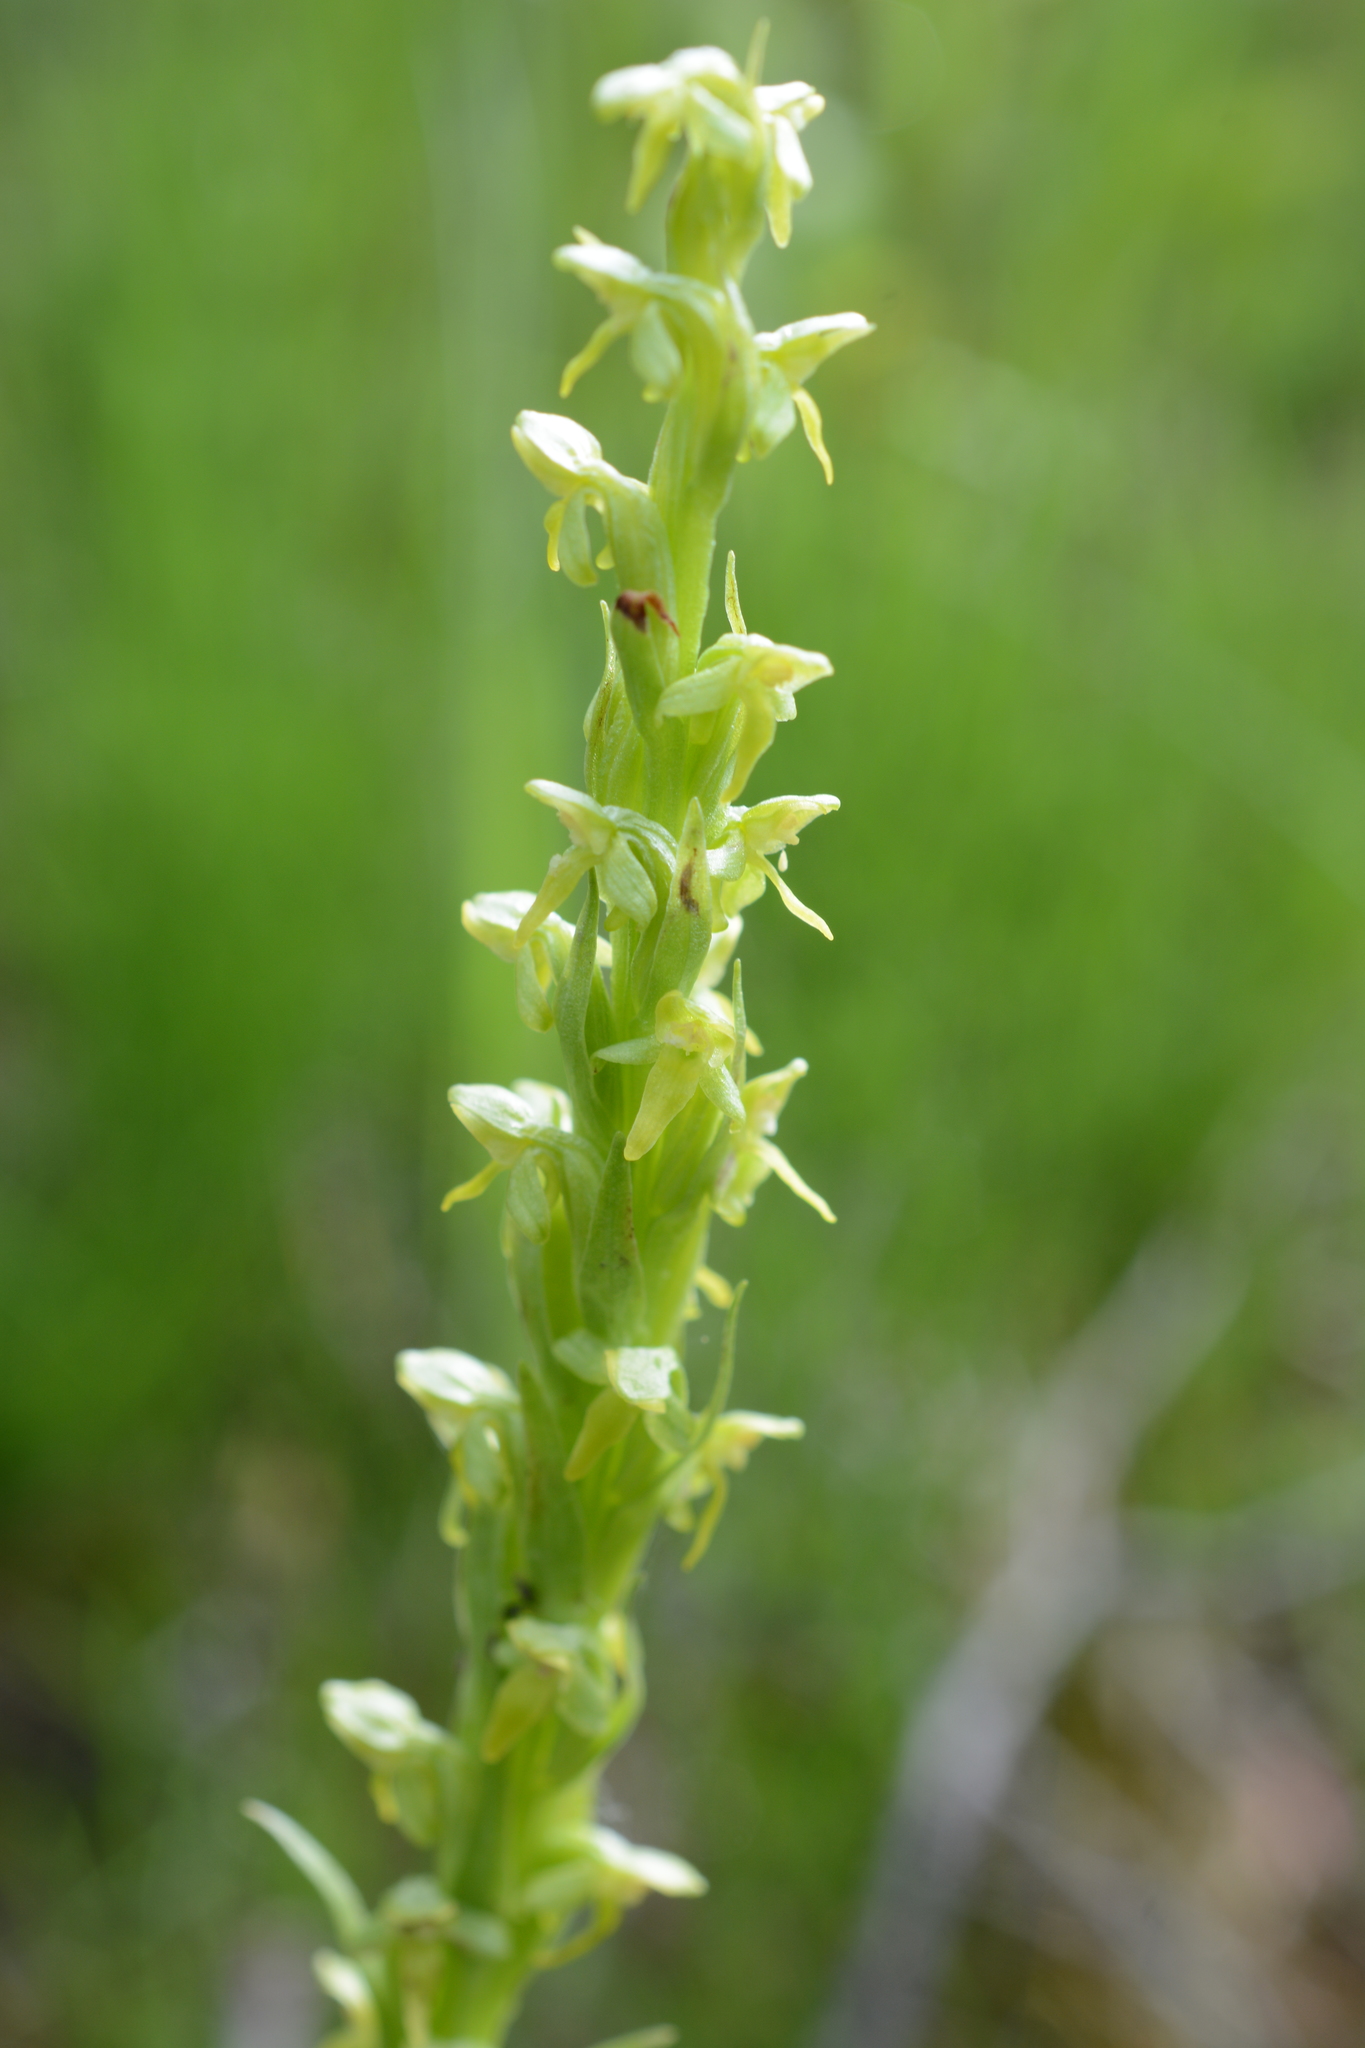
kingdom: Plantae
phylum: Tracheophyta
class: Liliopsida
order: Asparagales
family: Orchidaceae
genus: Platanthera
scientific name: Platanthera aquilonis
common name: Northern green orchid
